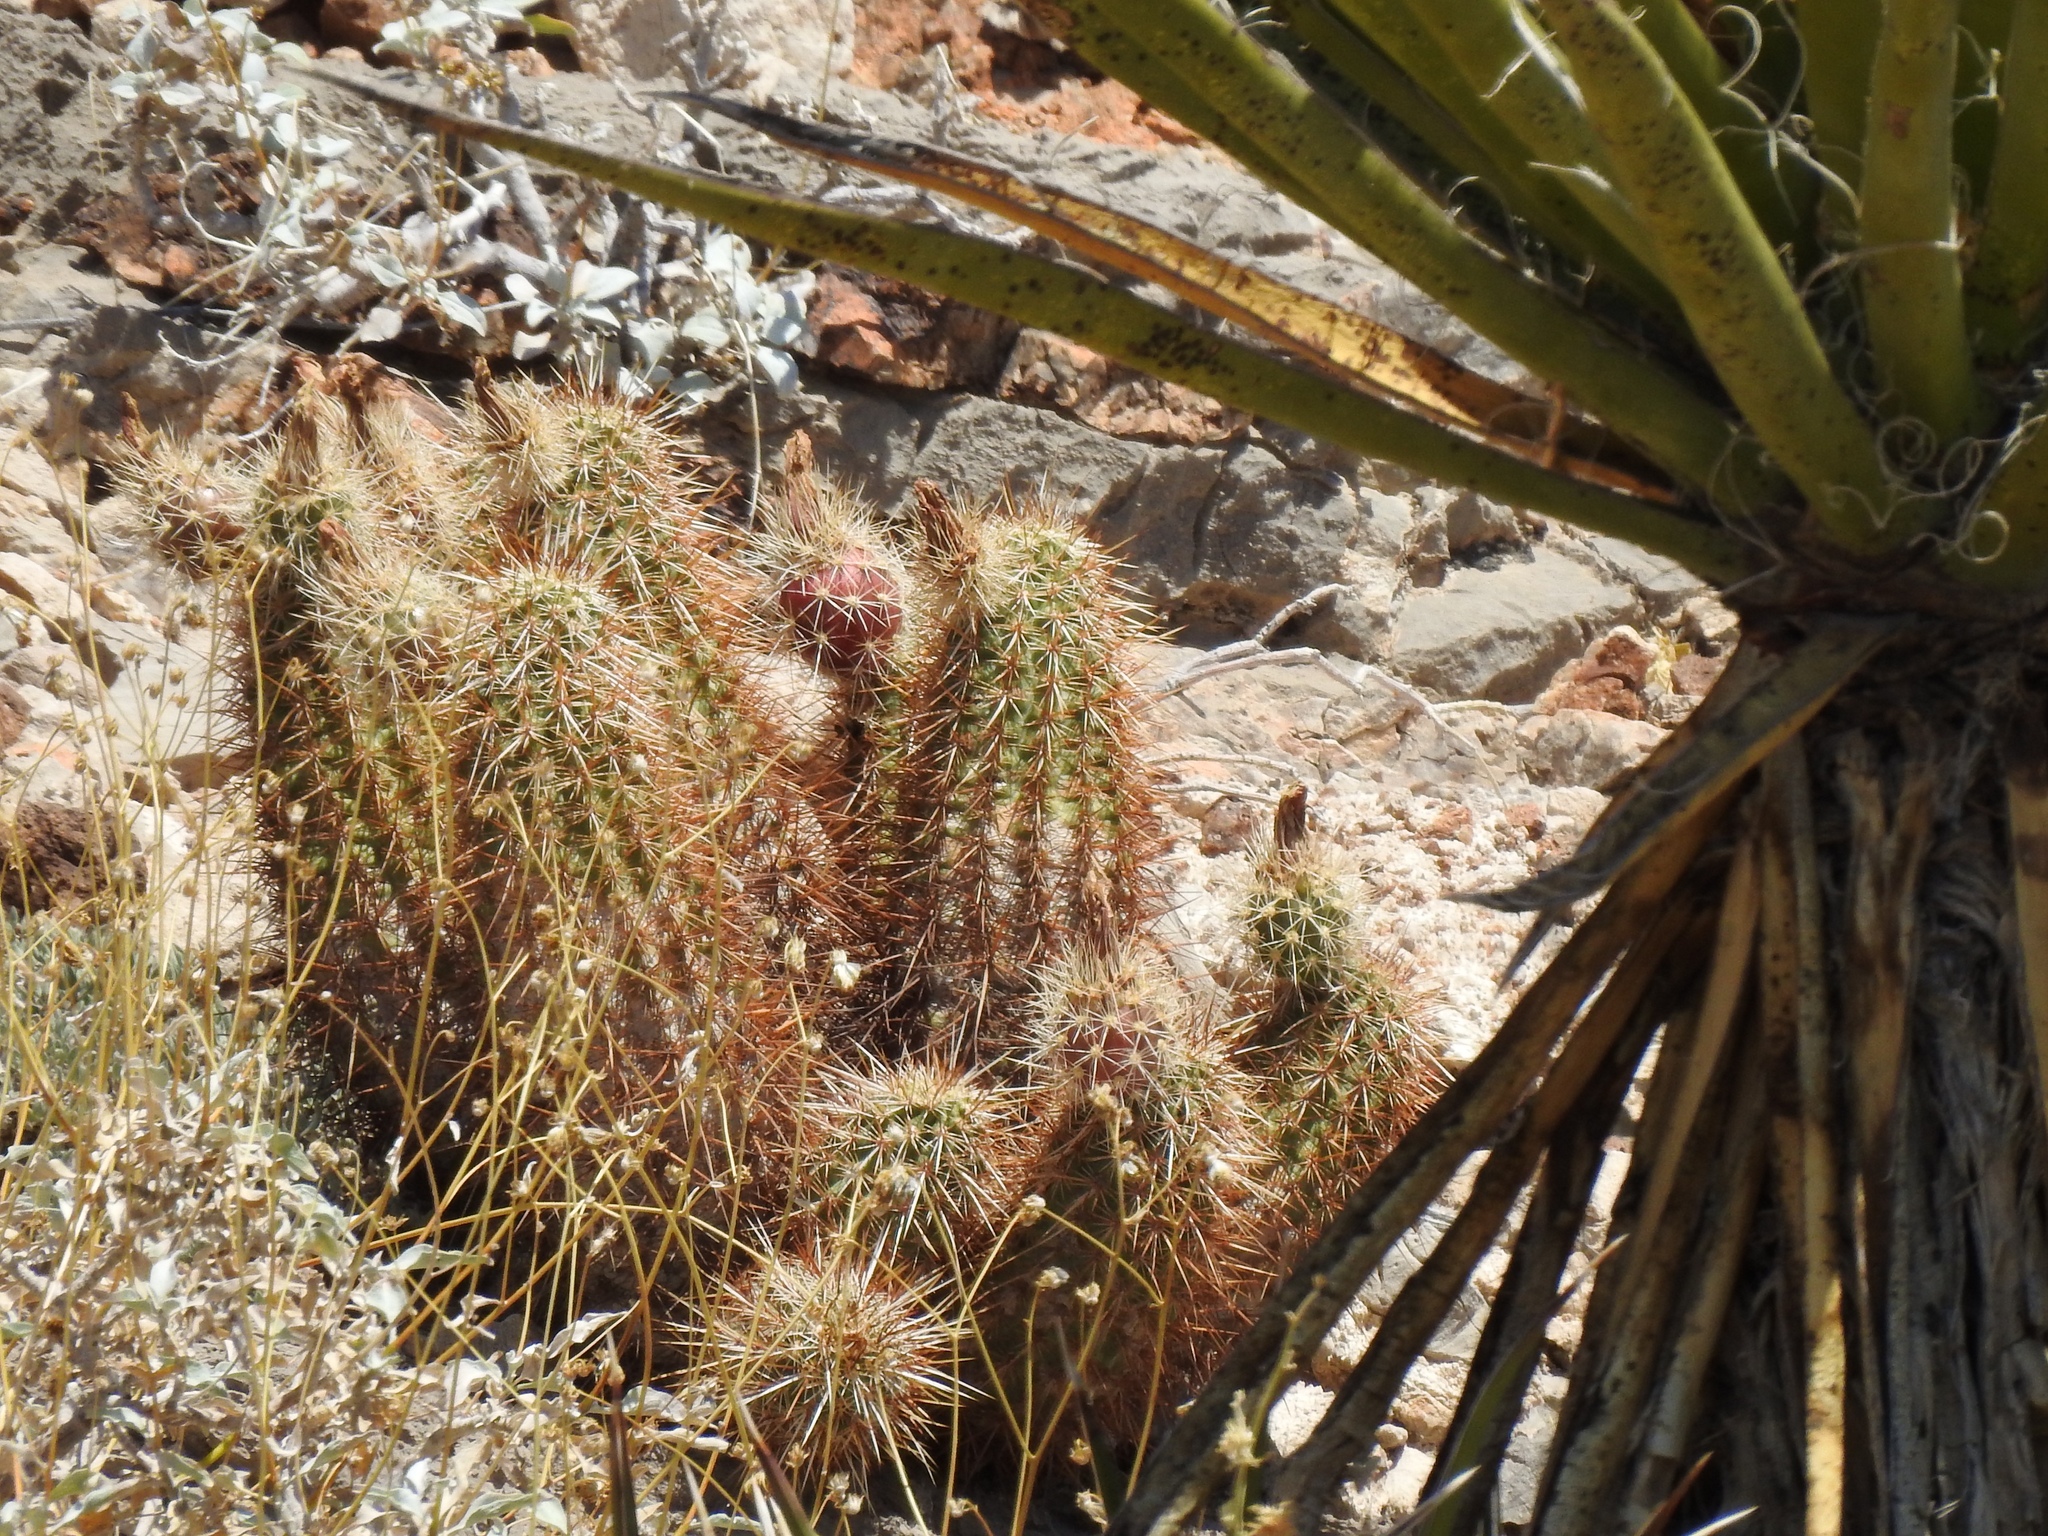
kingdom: Plantae
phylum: Tracheophyta
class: Magnoliopsida
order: Caryophyllales
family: Cactaceae
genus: Echinocereus
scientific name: Echinocereus engelmannii
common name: Engelmann's hedgehog cactus
